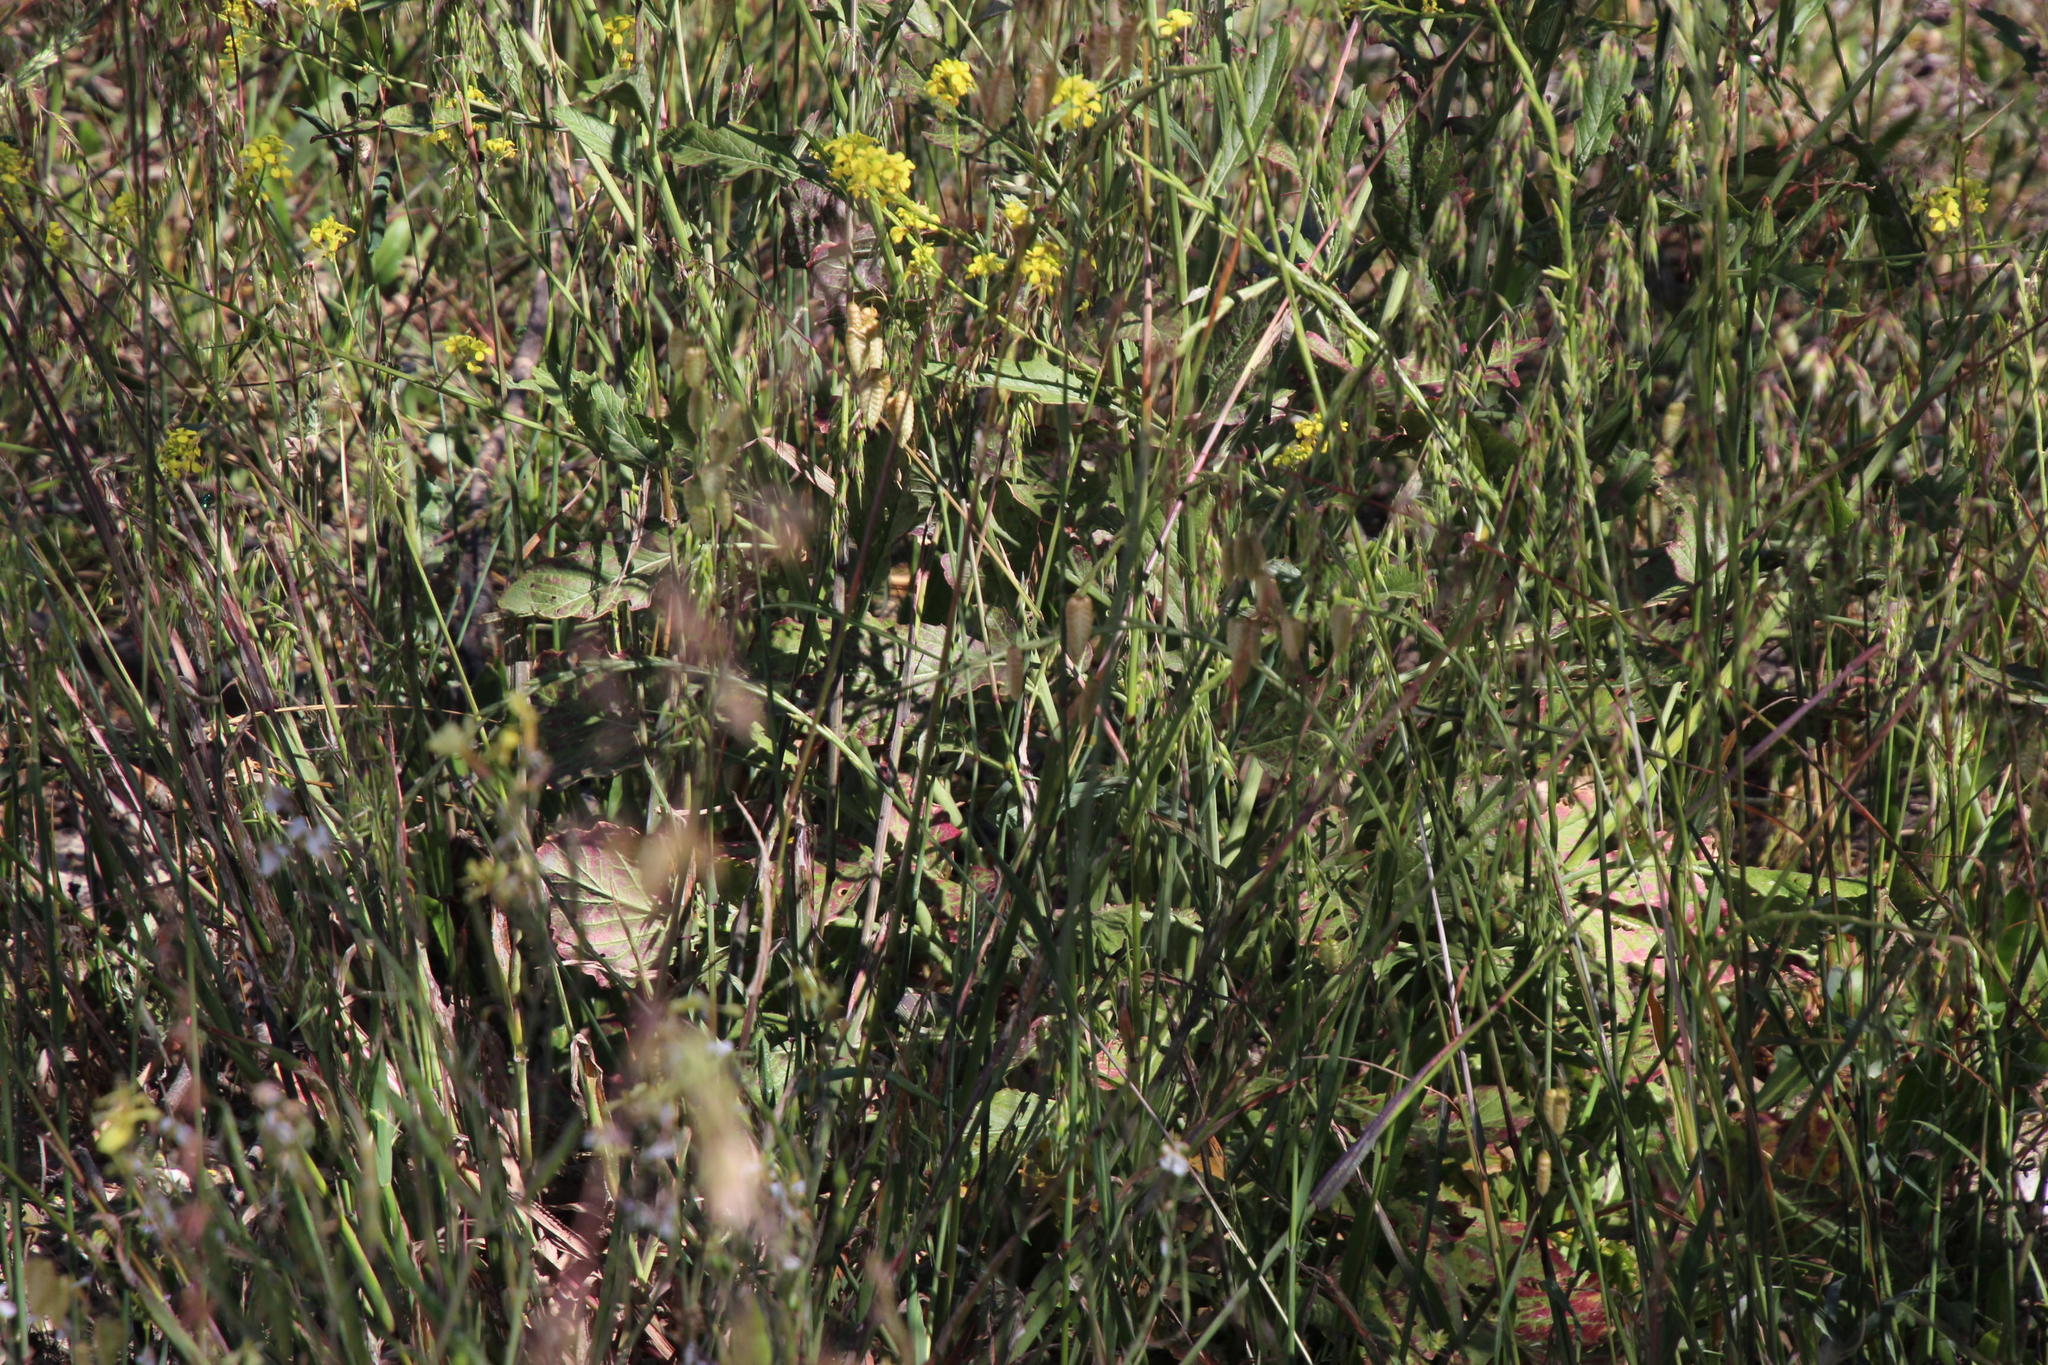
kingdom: Plantae
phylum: Tracheophyta
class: Magnoliopsida
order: Brassicales
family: Brassicaceae
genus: Rapistrum
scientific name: Rapistrum rugosum
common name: Annual bastardcabbage
